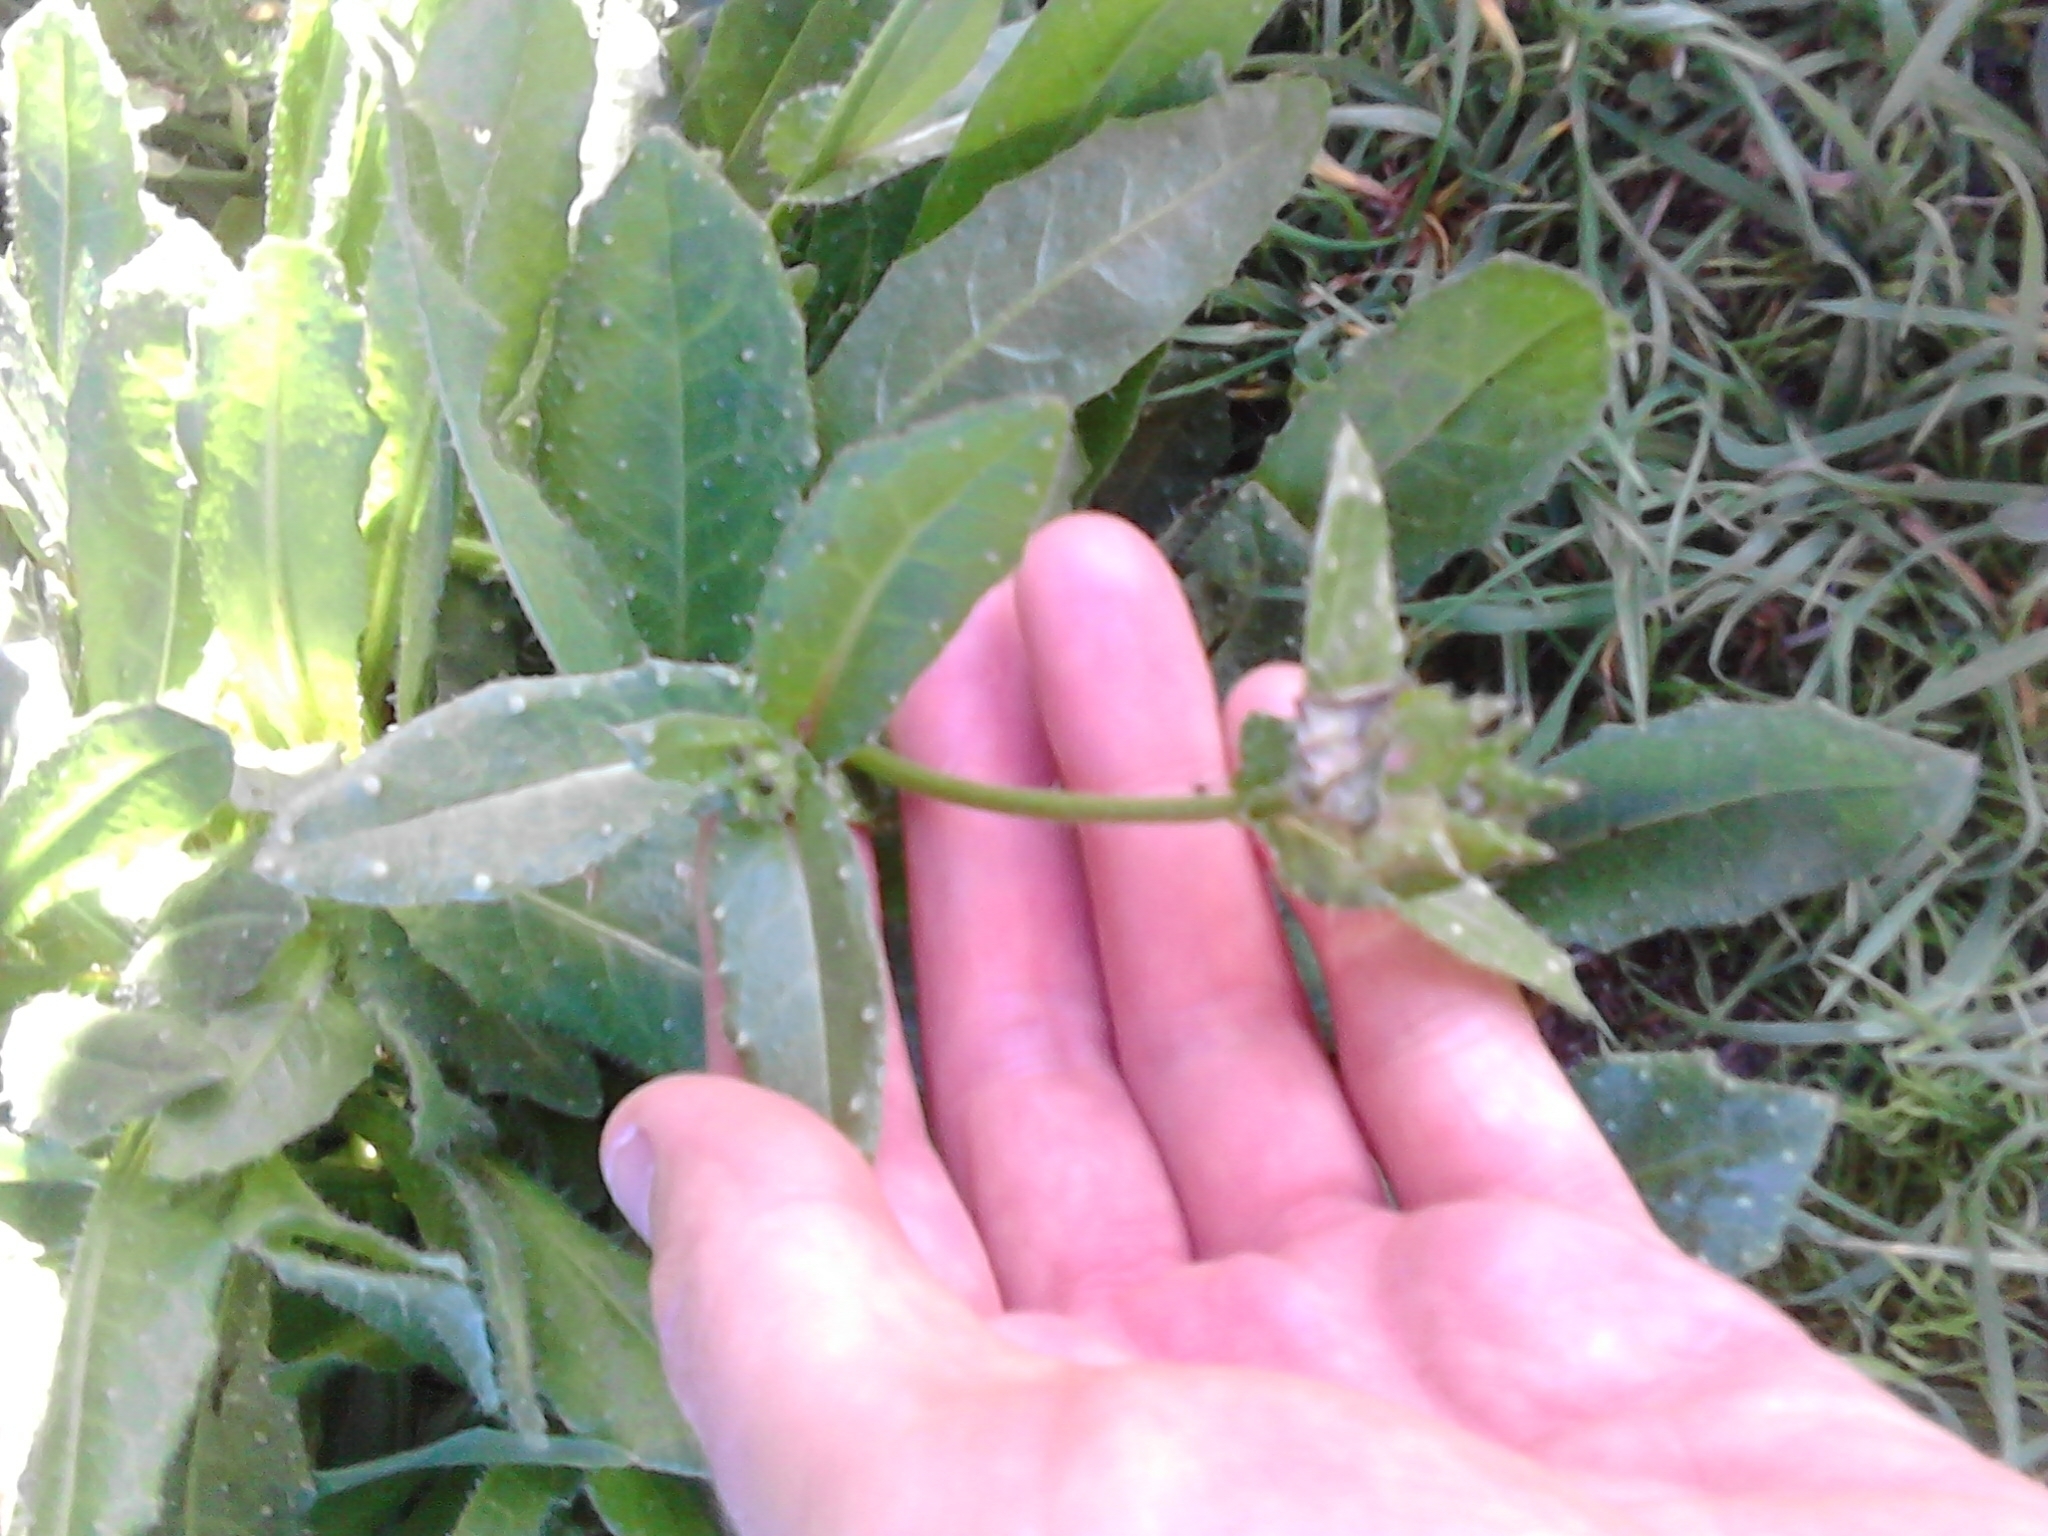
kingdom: Plantae
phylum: Tracheophyta
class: Magnoliopsida
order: Asterales
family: Asteraceae
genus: Helminthotheca
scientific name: Helminthotheca echioides
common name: Ox-tongue
